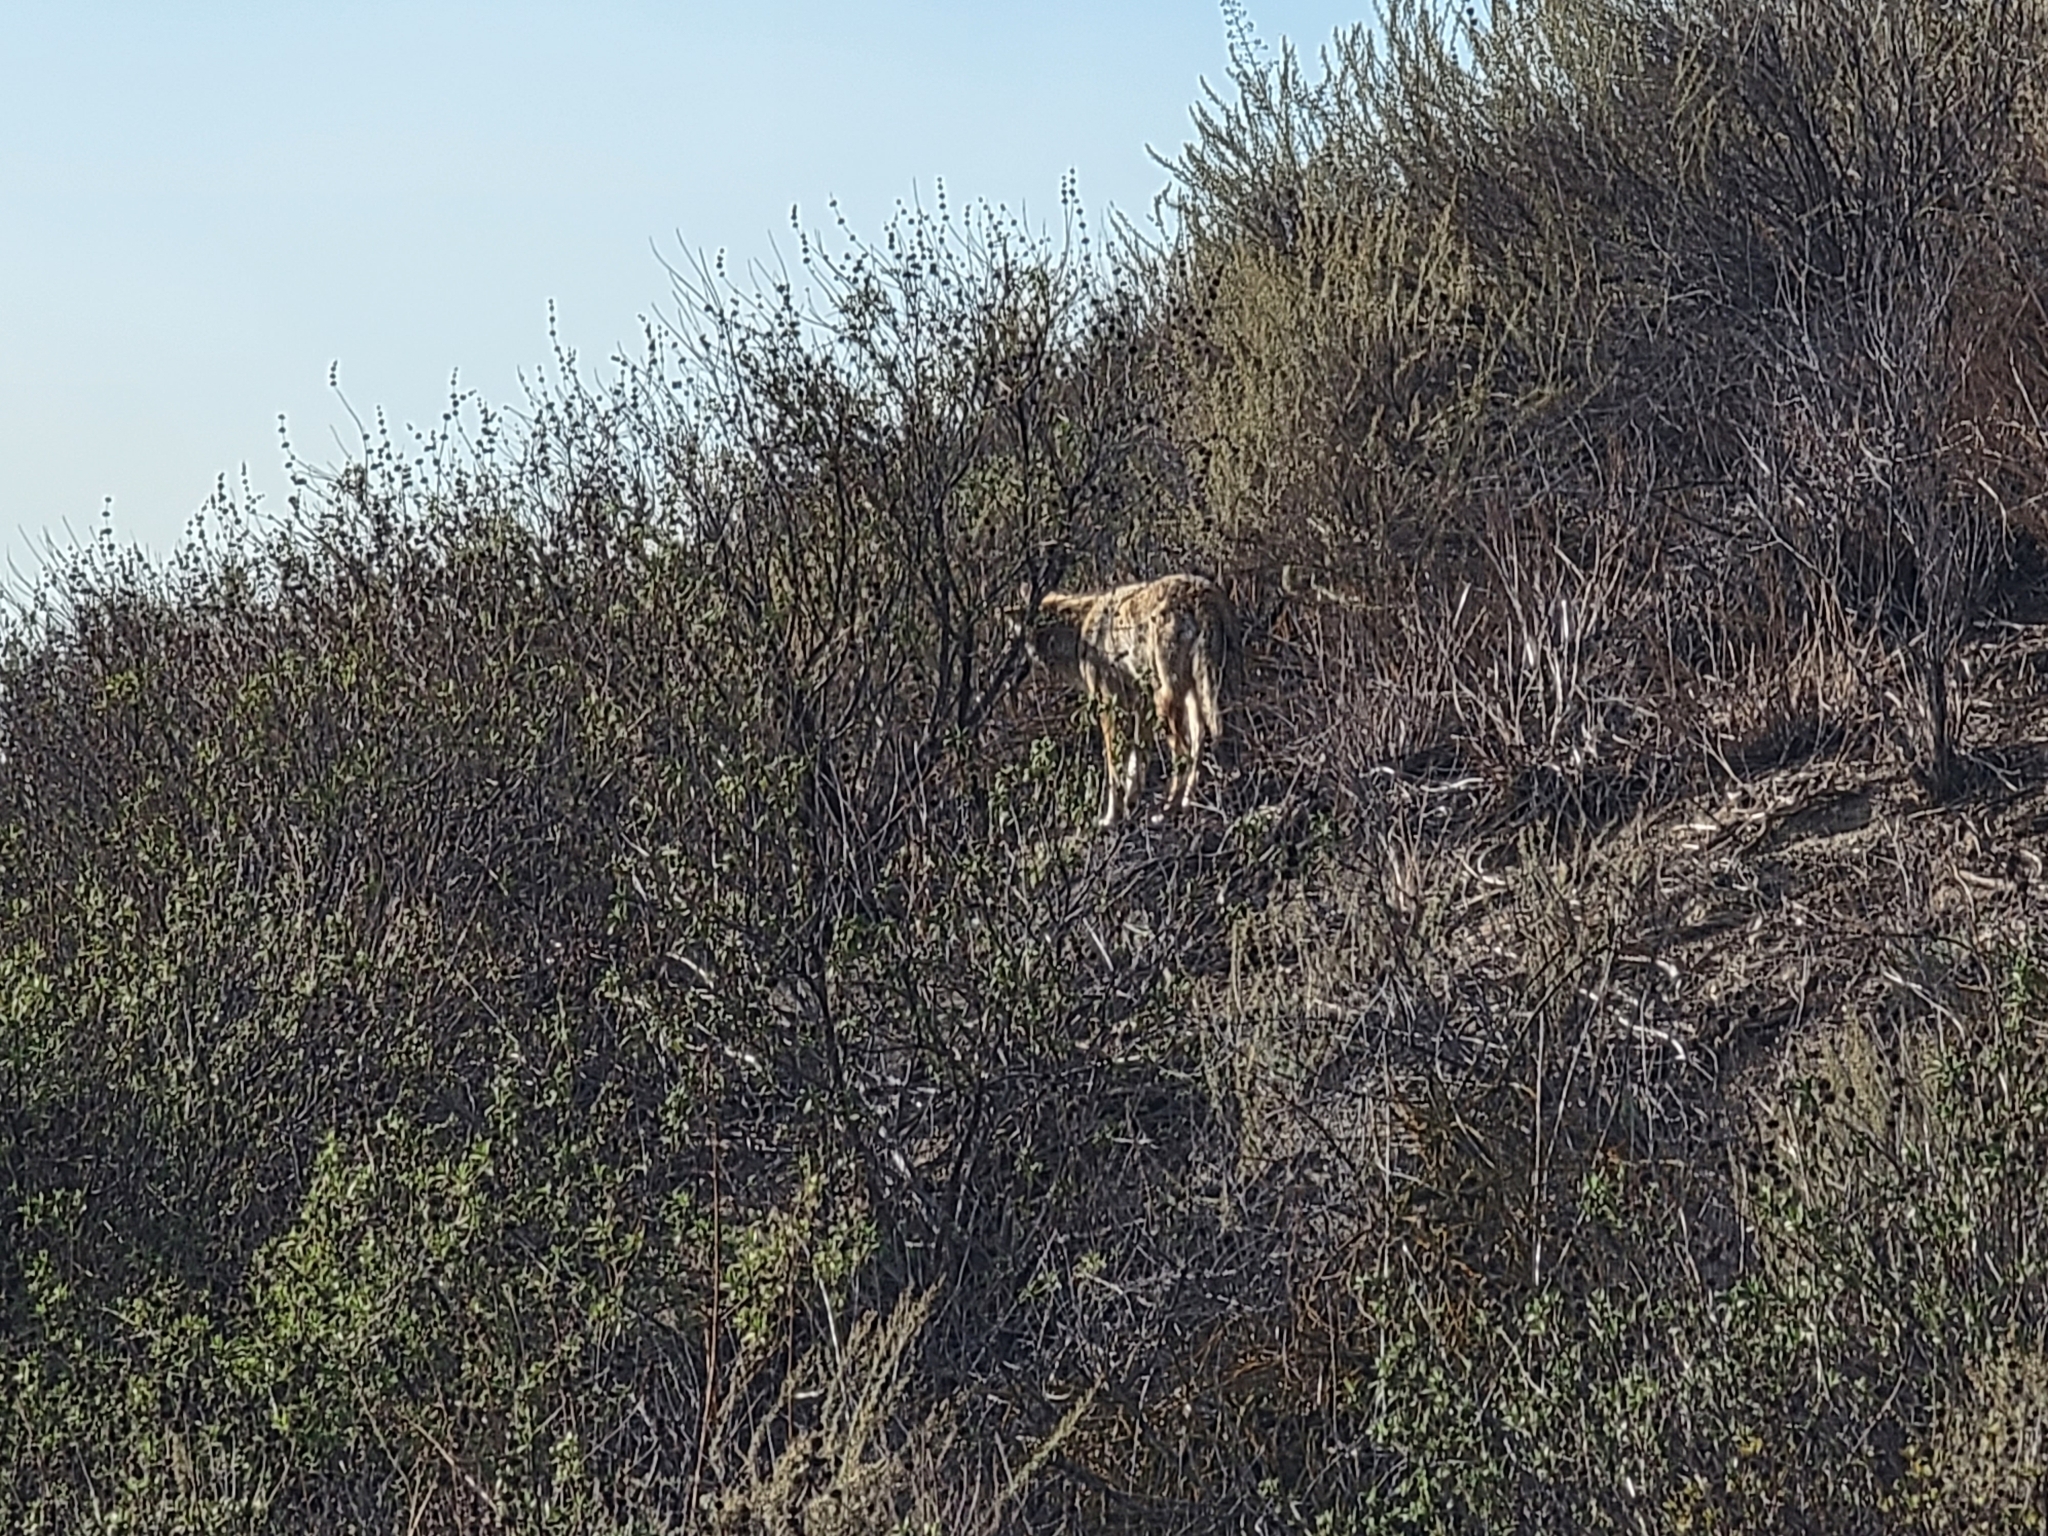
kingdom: Animalia
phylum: Chordata
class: Mammalia
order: Carnivora
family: Canidae
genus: Canis
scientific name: Canis latrans
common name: Coyote
